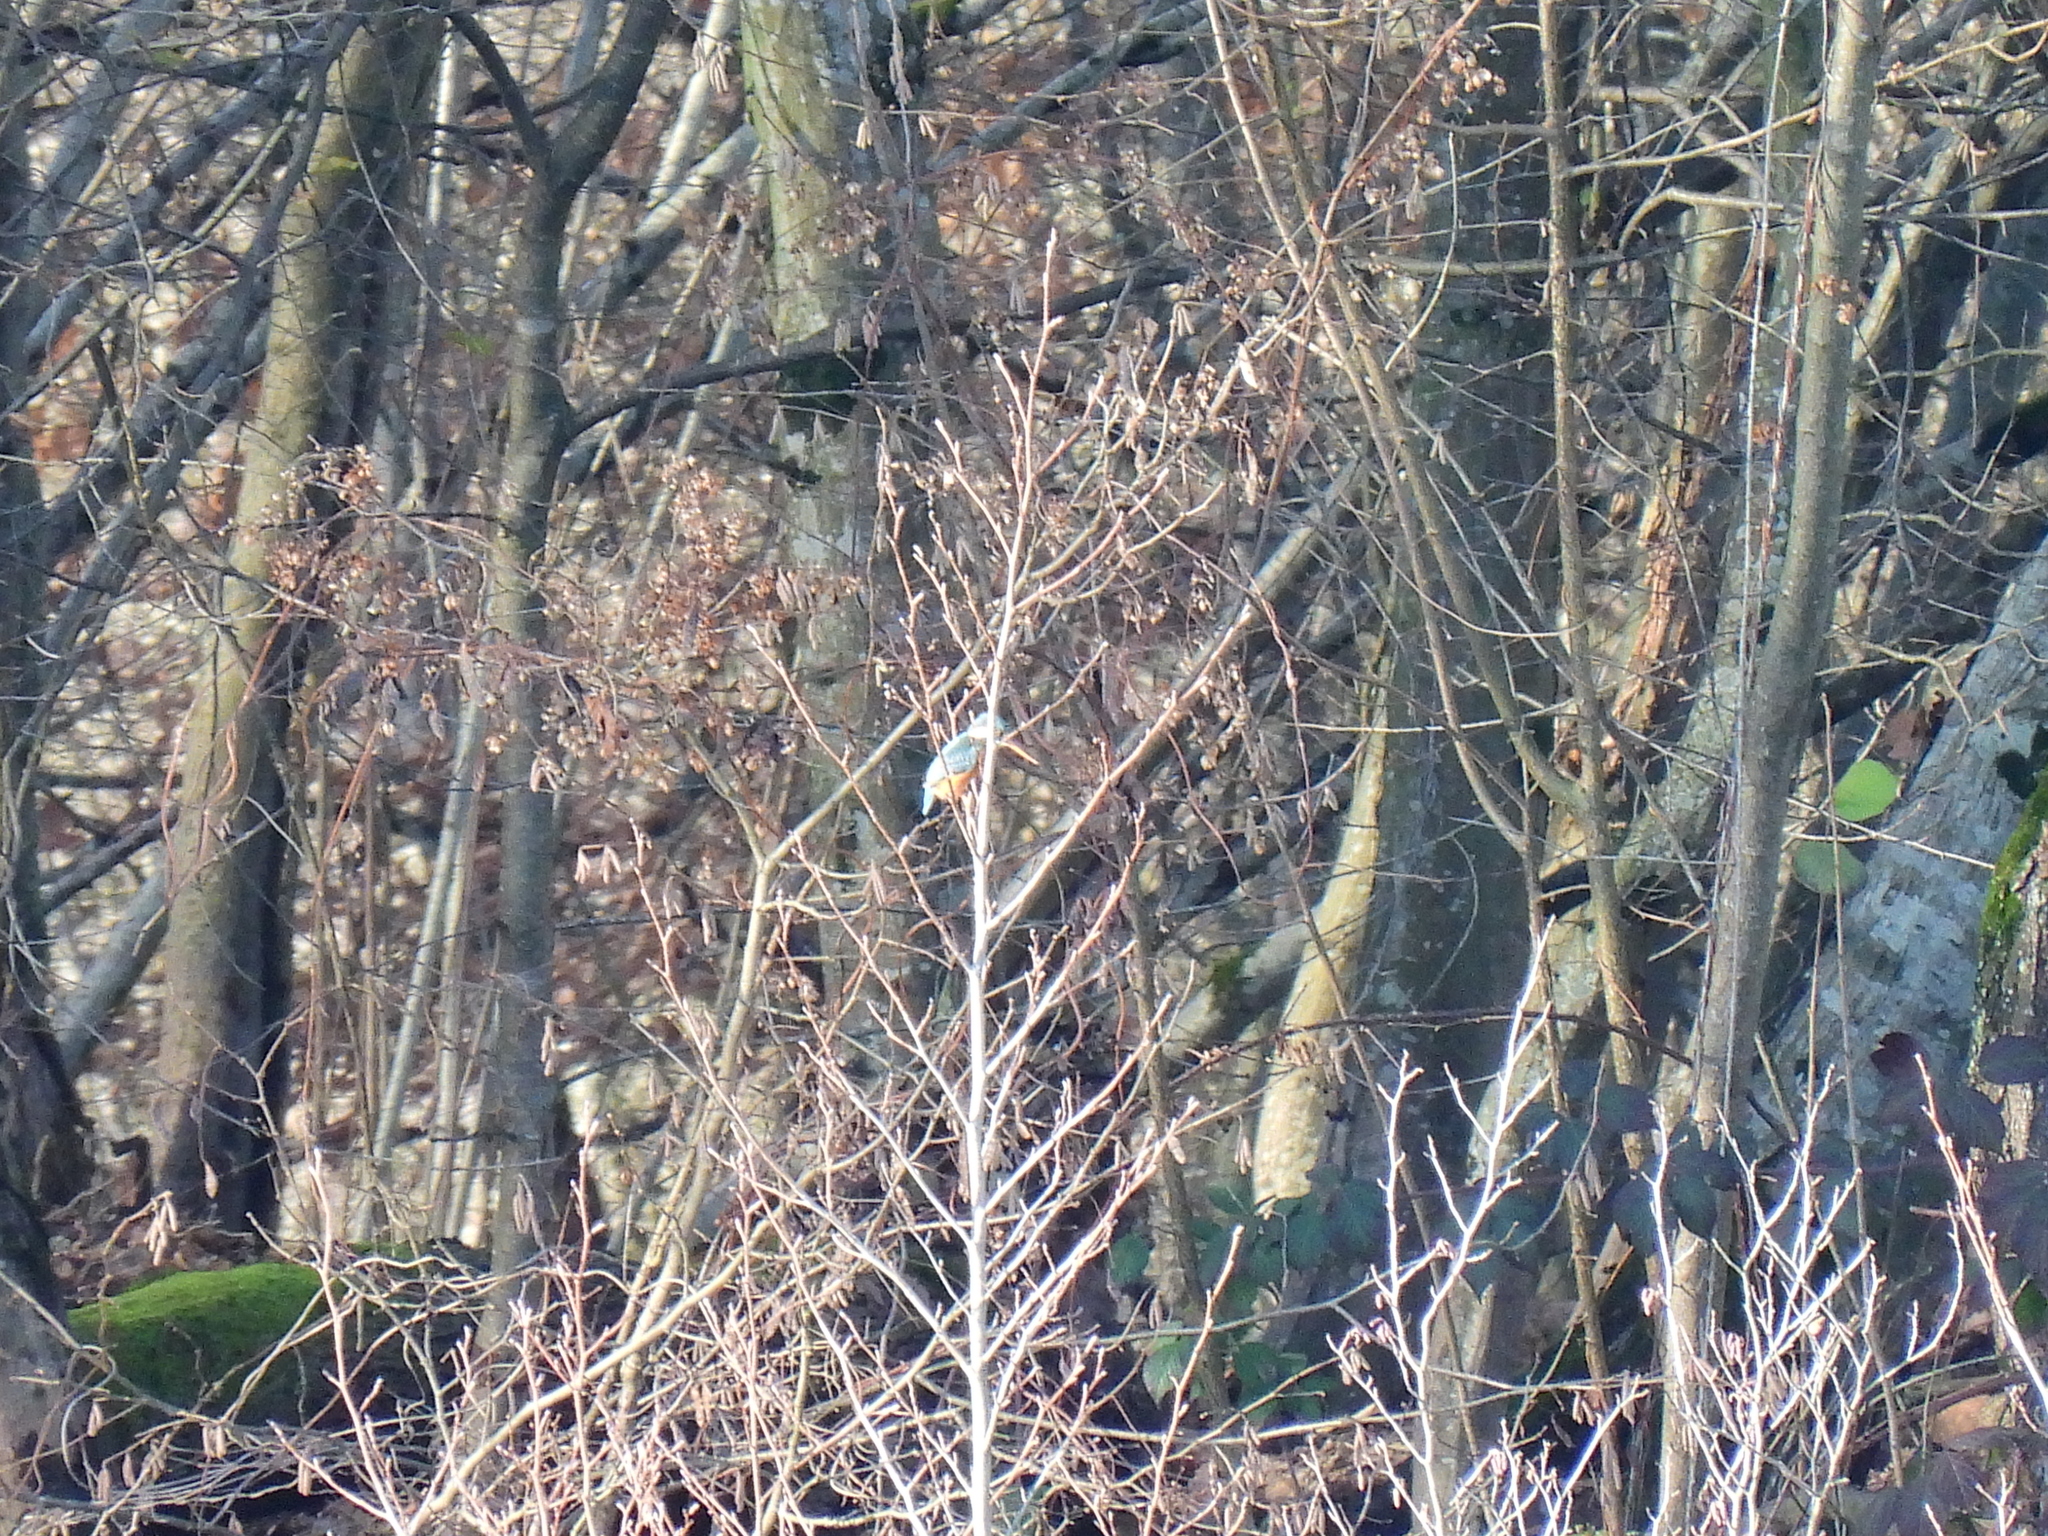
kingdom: Animalia
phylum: Chordata
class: Aves
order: Coraciiformes
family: Alcedinidae
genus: Alcedo
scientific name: Alcedo atthis
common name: Common kingfisher
